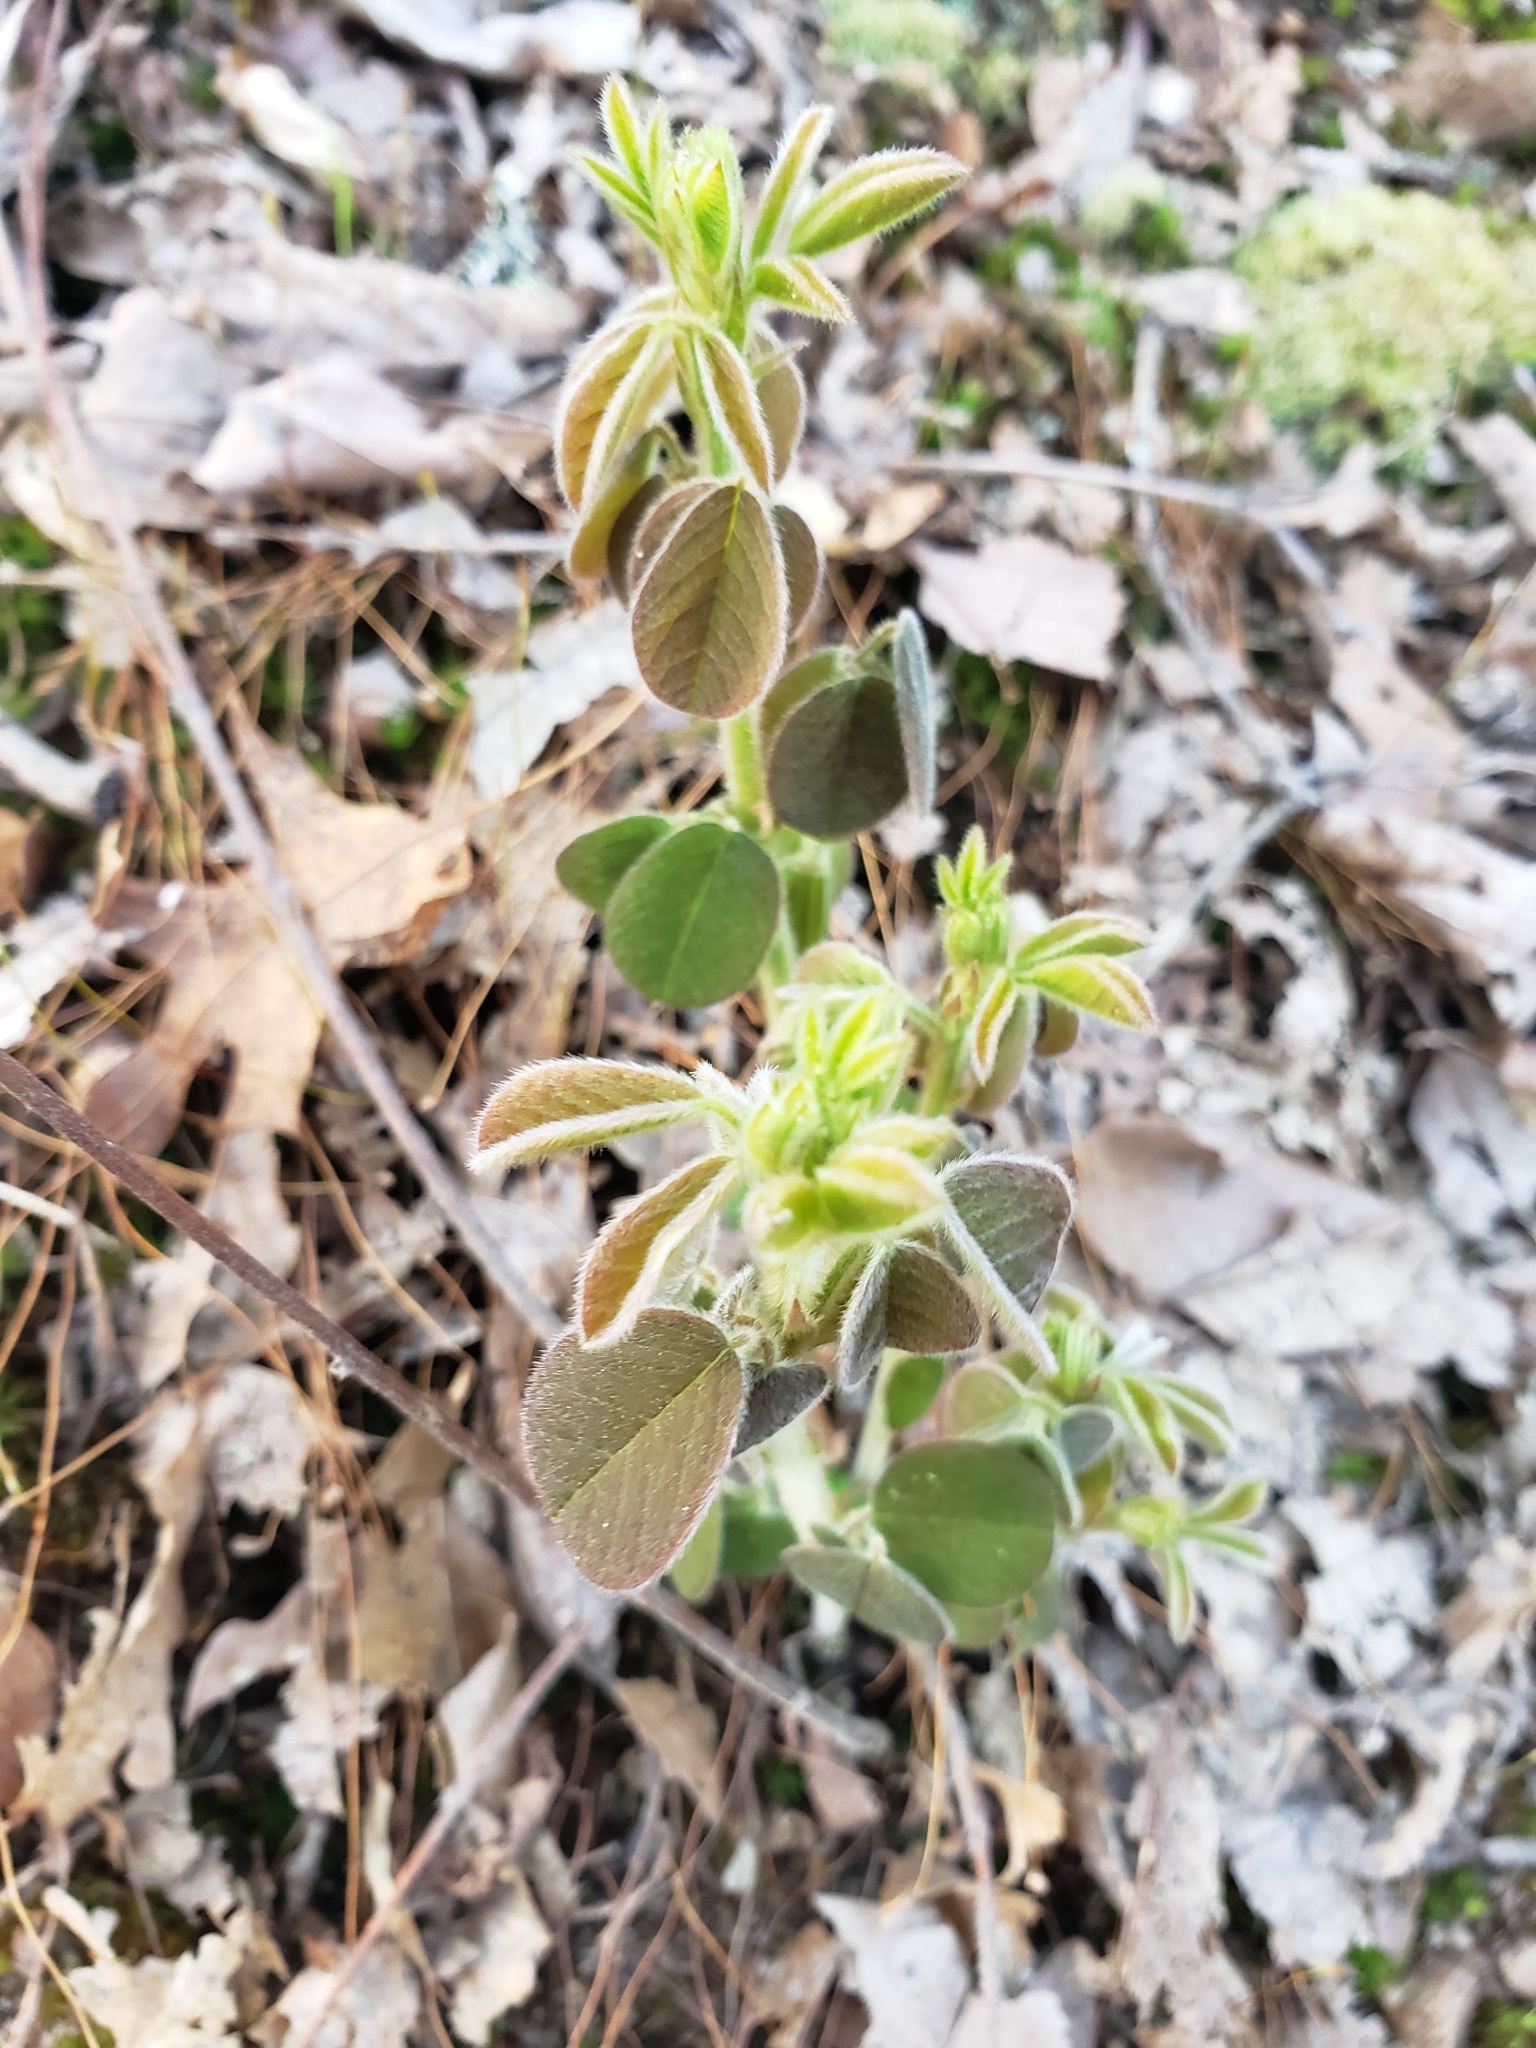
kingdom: Plantae
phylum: Tracheophyta
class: Magnoliopsida
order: Fabales
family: Fabaceae
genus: Lespedeza
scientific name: Lespedeza hirta
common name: Hairy lespedeza
